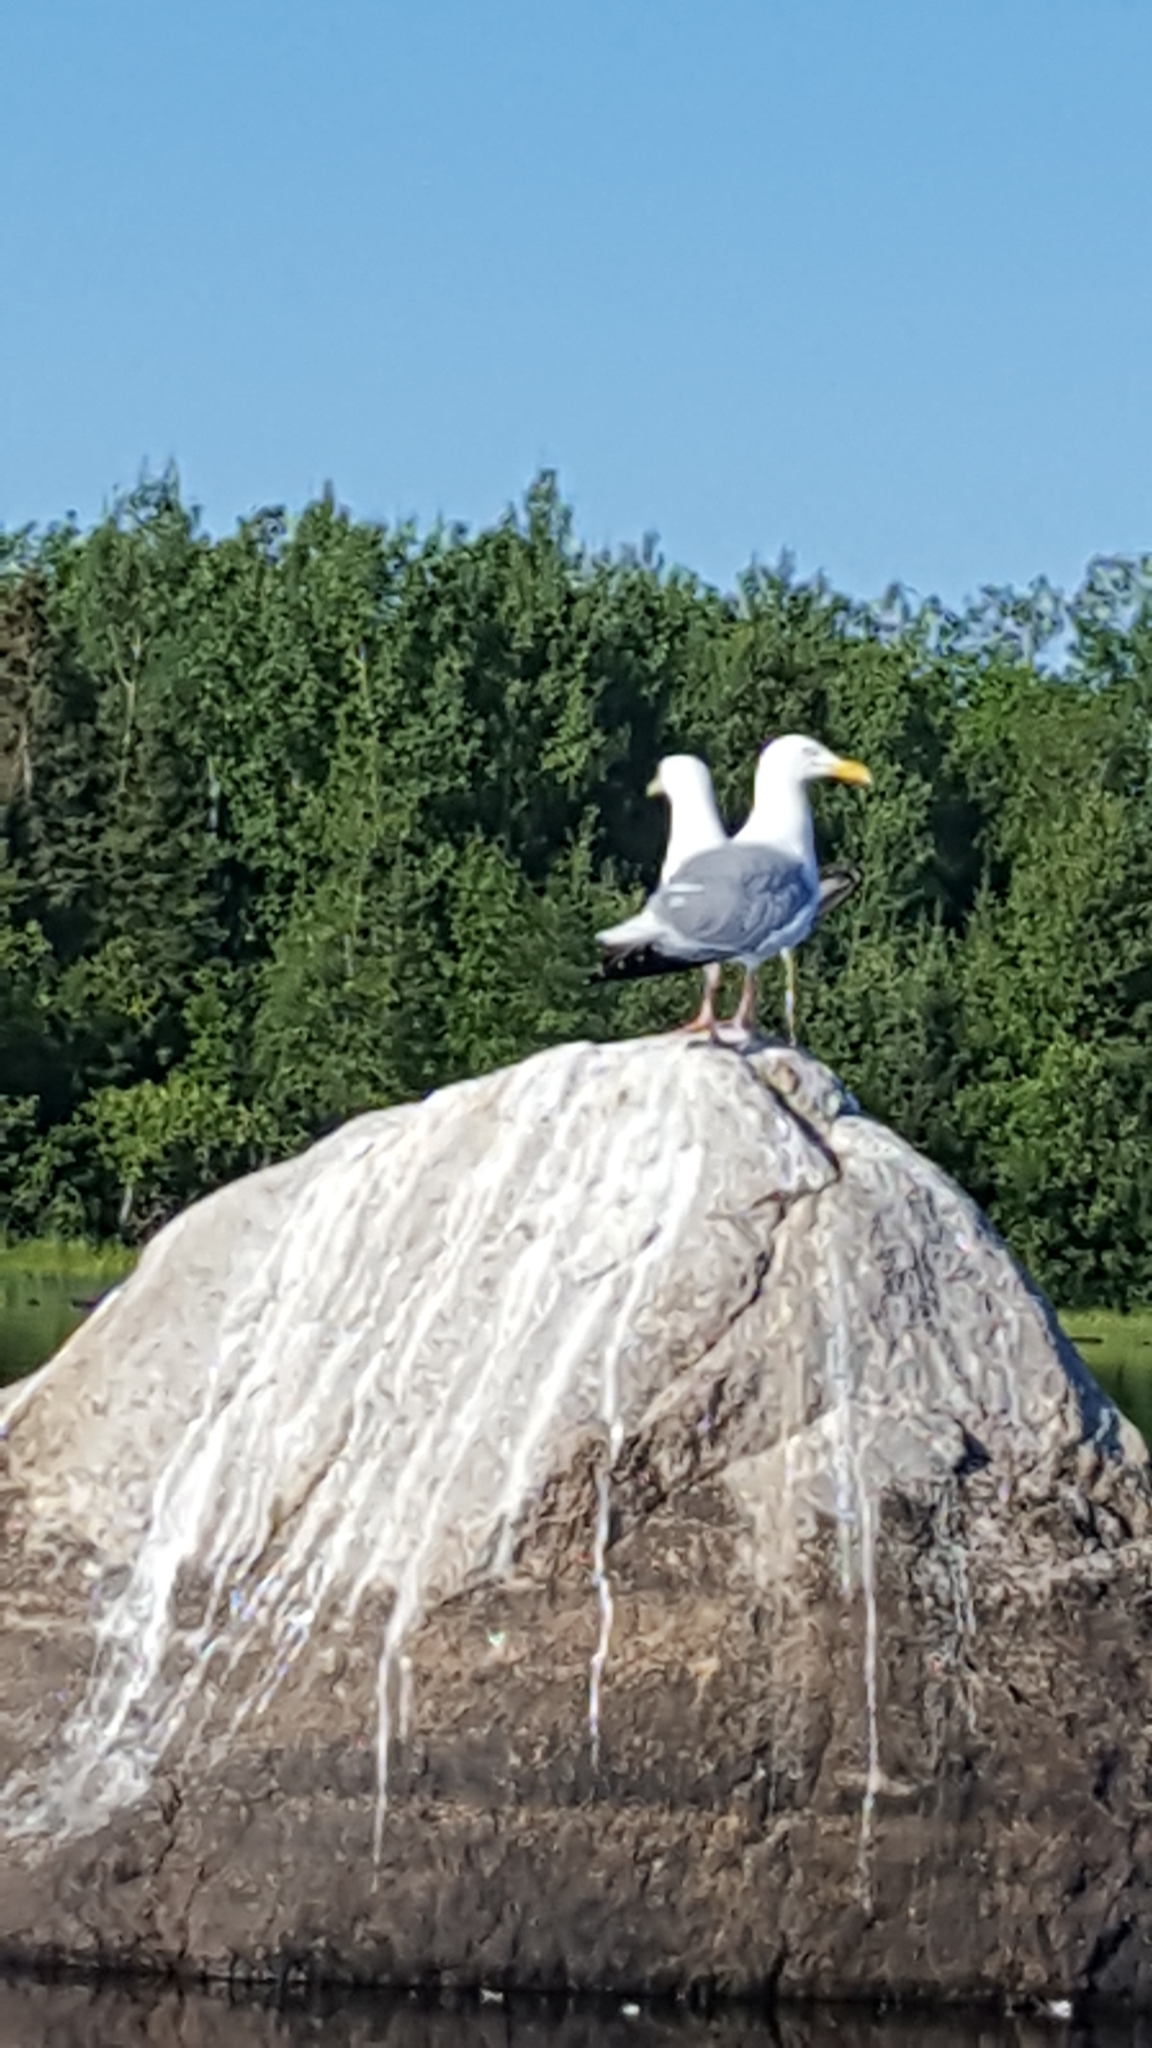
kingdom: Animalia
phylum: Chordata
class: Aves
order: Charadriiformes
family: Laridae
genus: Larus
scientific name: Larus argentatus
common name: Herring gull
